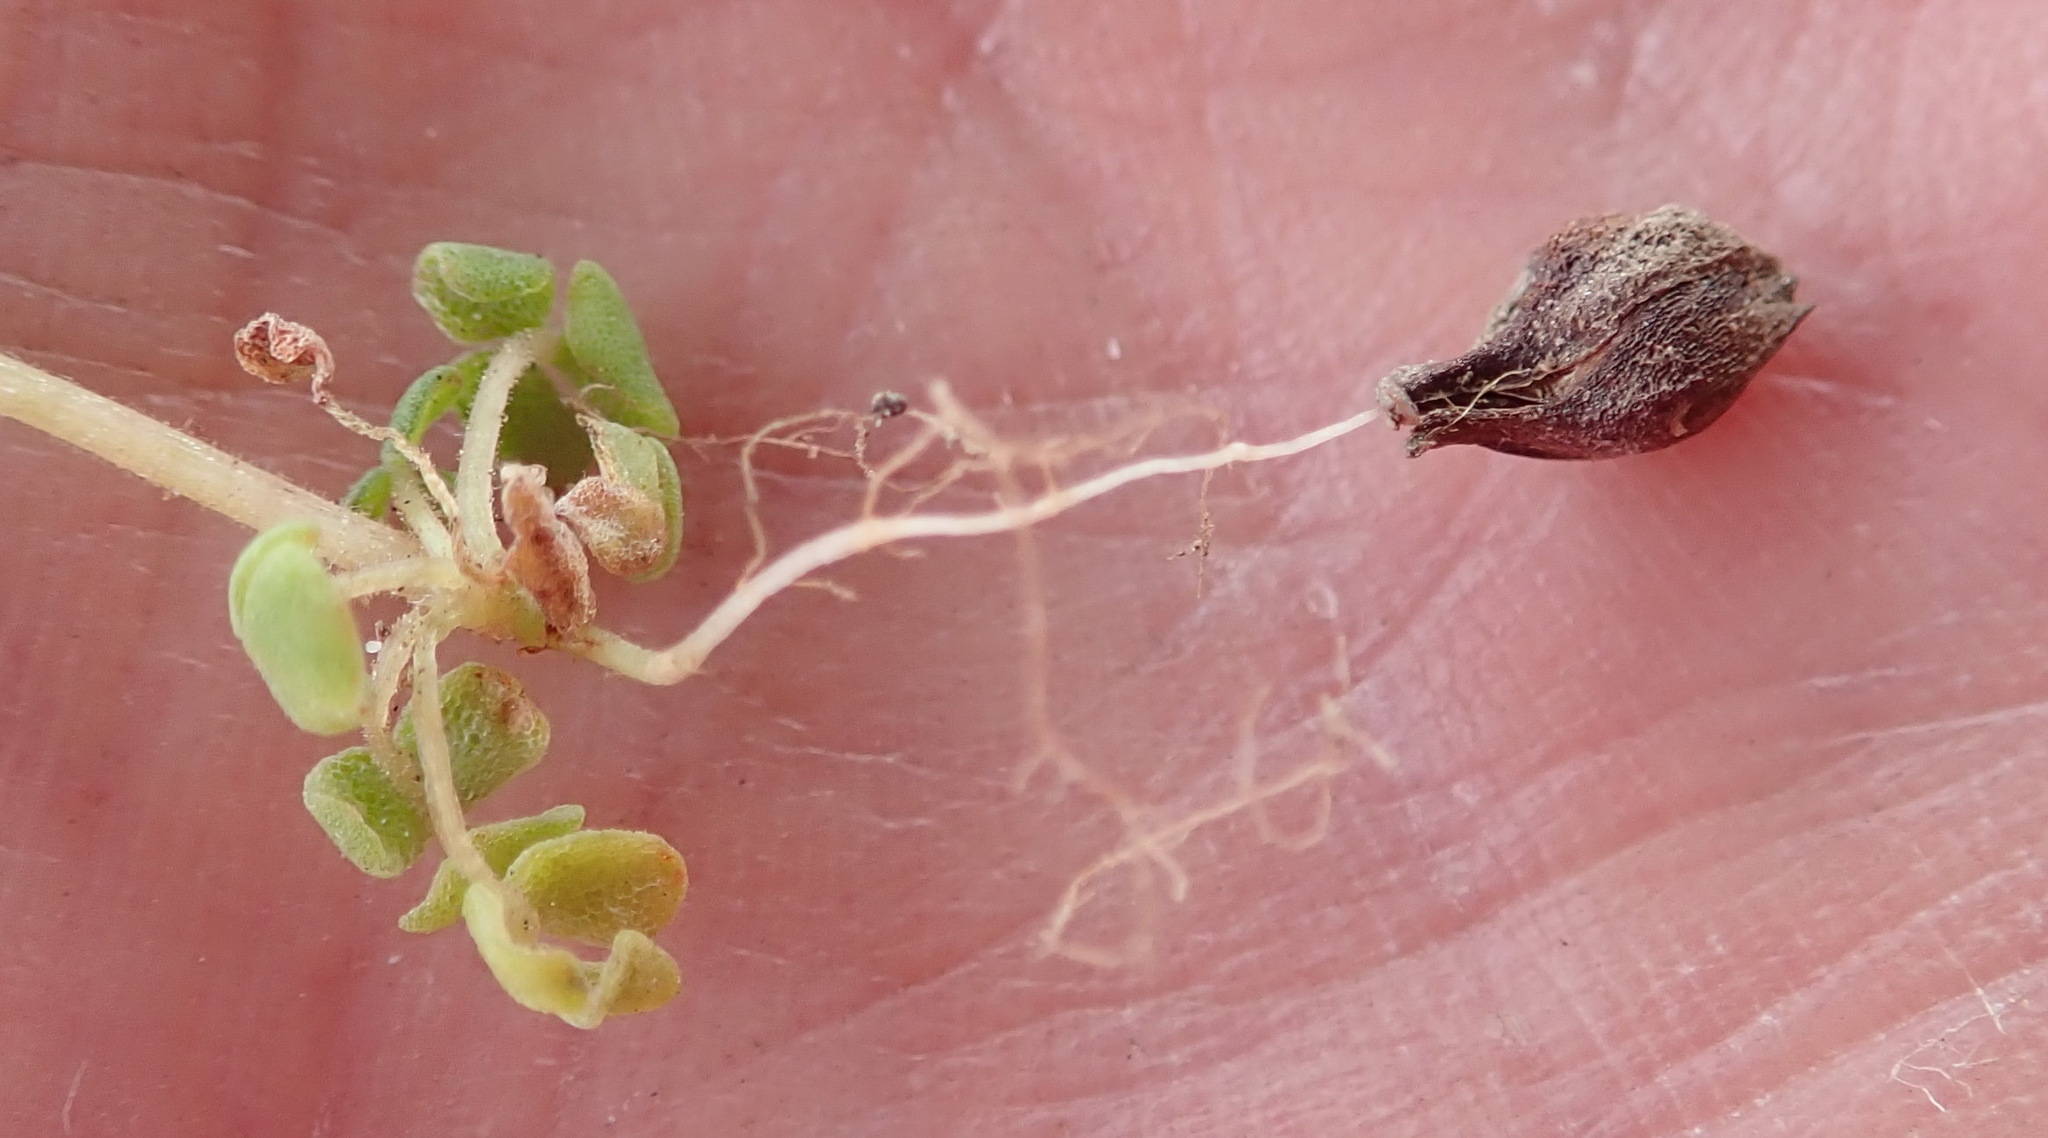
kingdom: Plantae
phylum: Tracheophyta
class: Magnoliopsida
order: Oxalidales
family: Oxalidaceae
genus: Oxalis
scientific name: Oxalis fergusoniae
